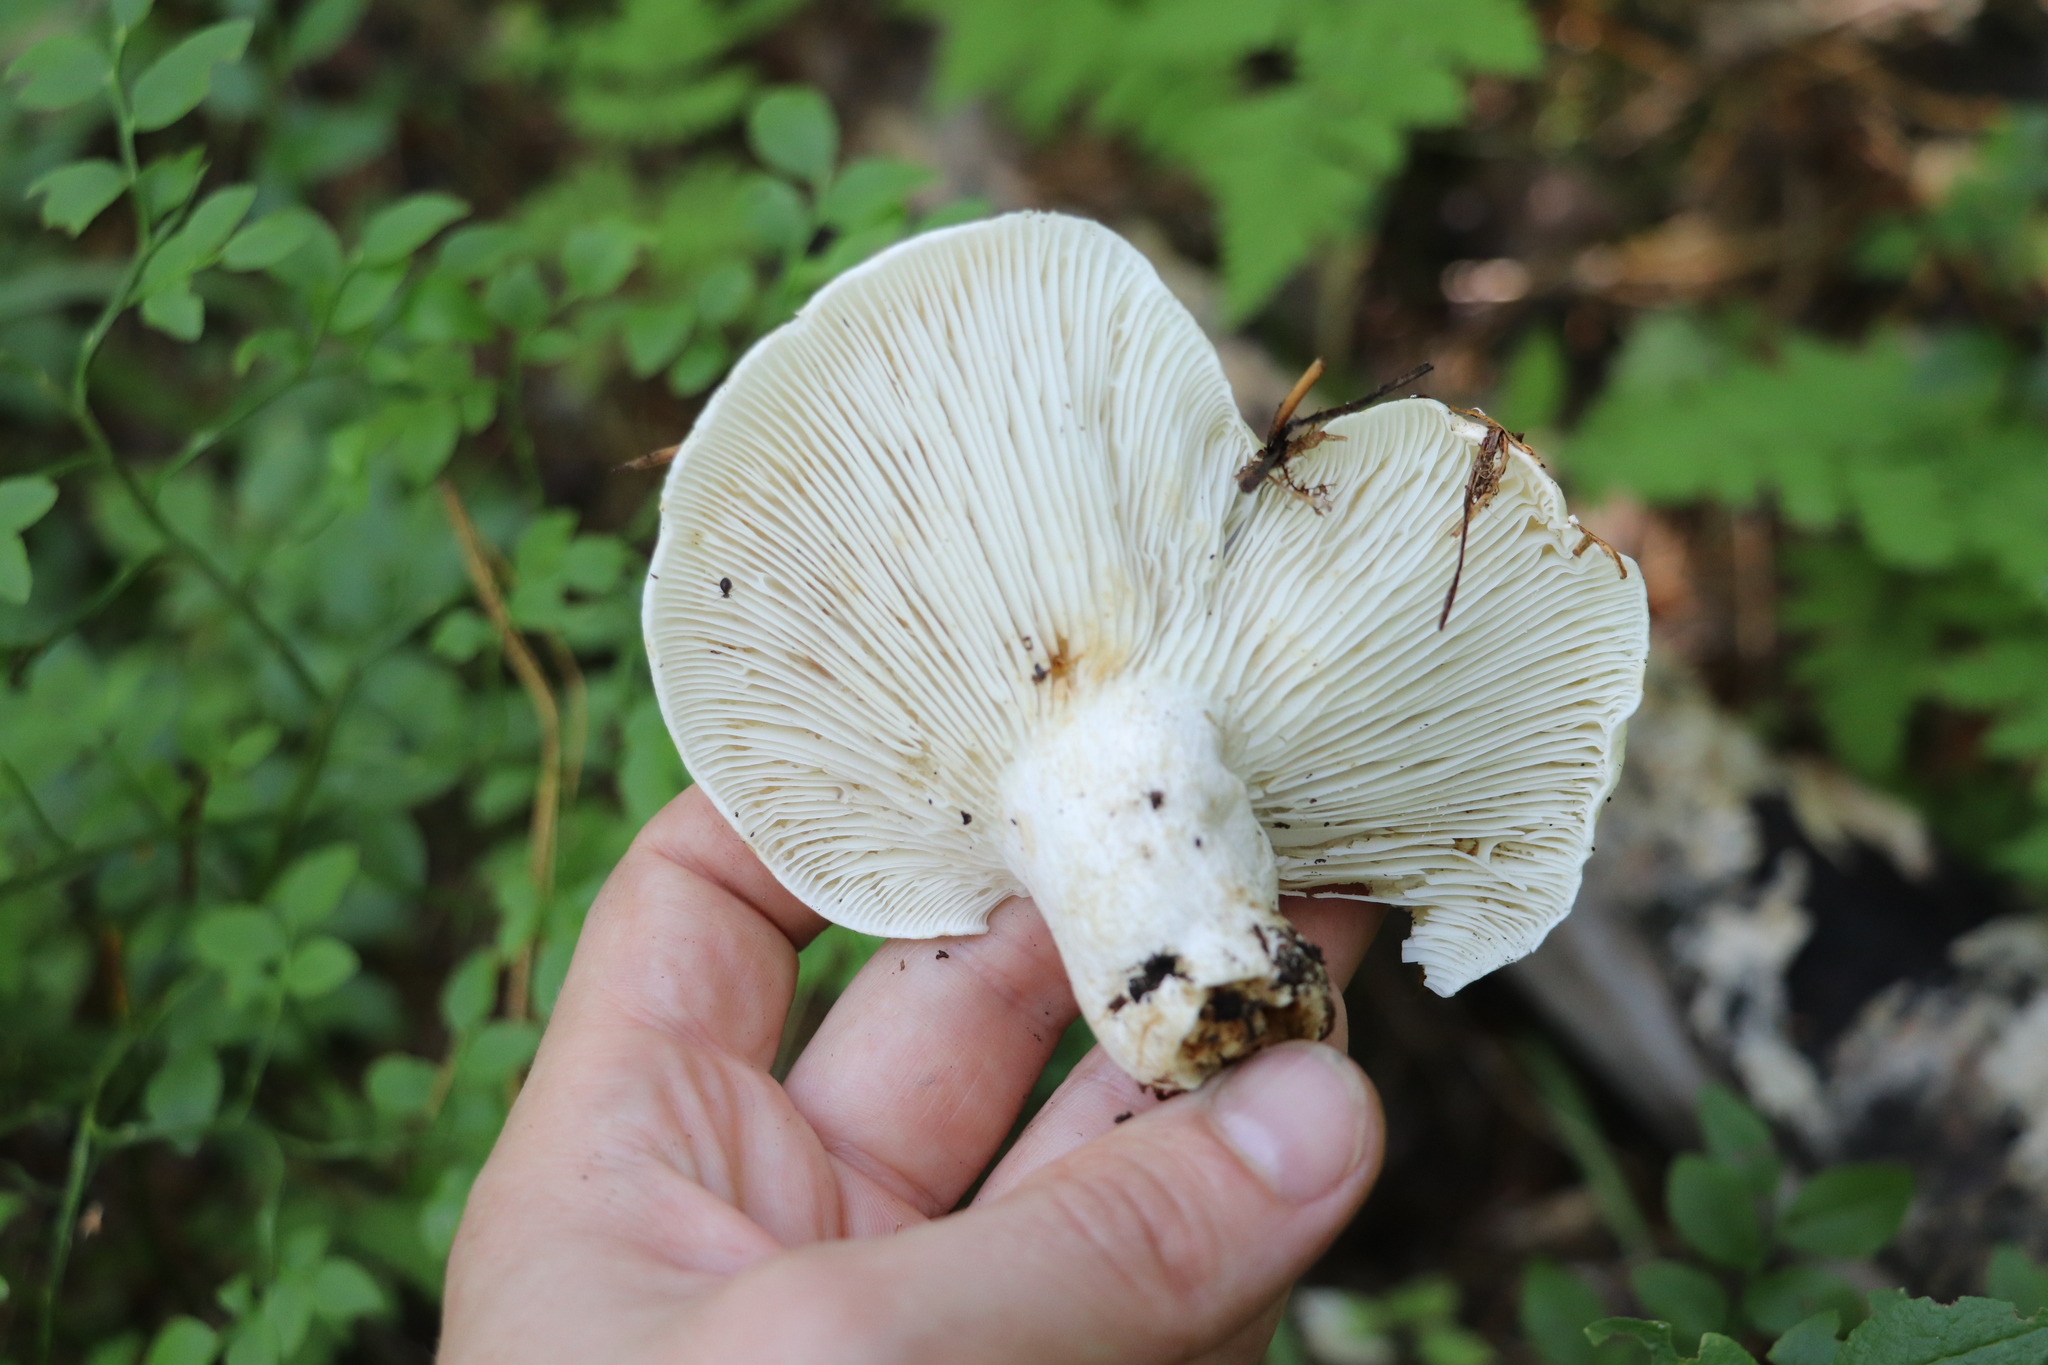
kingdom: Fungi
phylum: Basidiomycota
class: Agaricomycetes
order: Russulales
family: Russulaceae
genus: Russula
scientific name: Russula delica
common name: Milk white brittlegill
